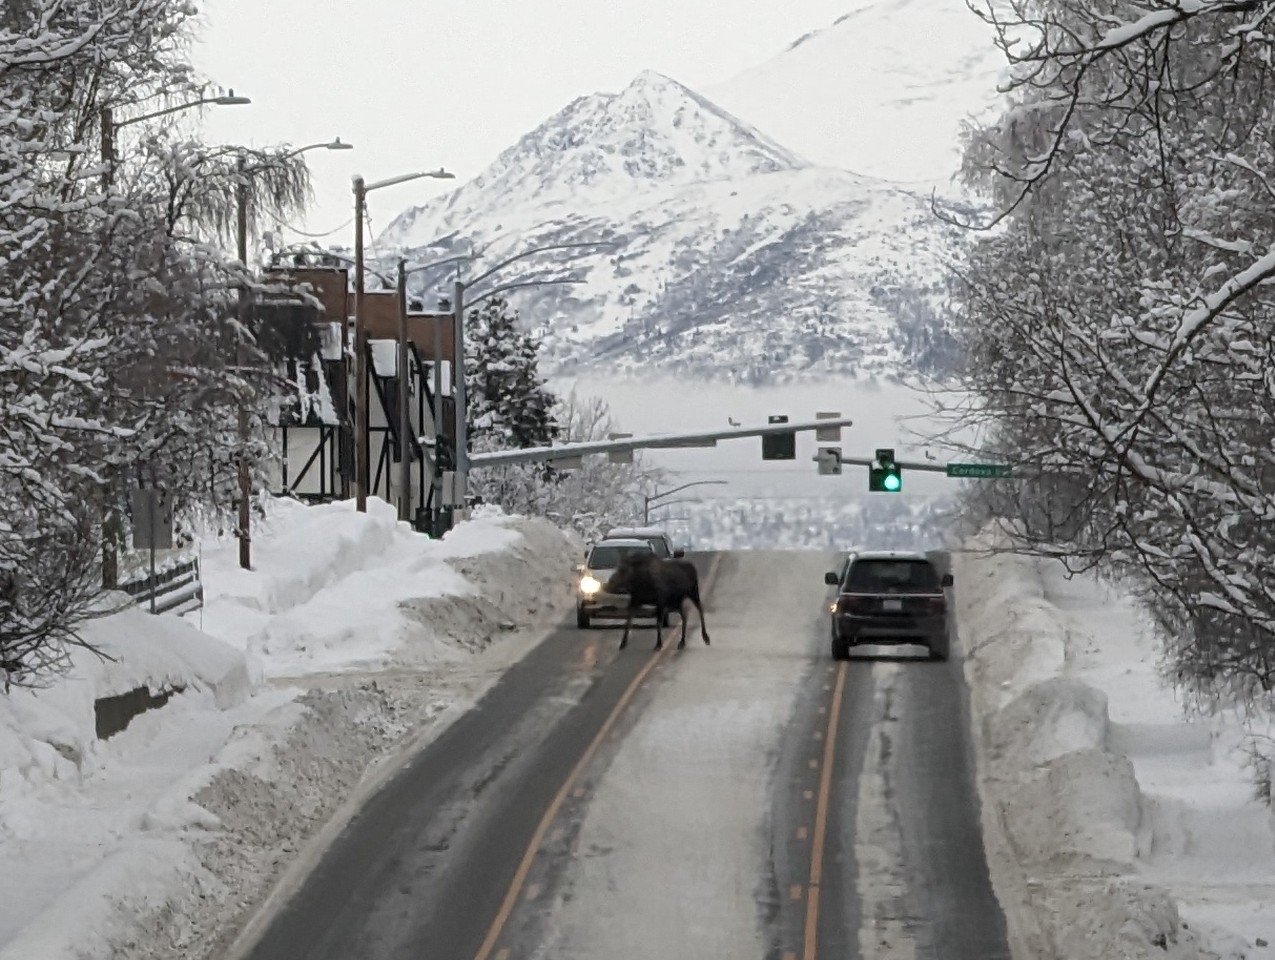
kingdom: Animalia
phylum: Chordata
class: Mammalia
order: Artiodactyla
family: Cervidae
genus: Alces
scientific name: Alces alces
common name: Moose
